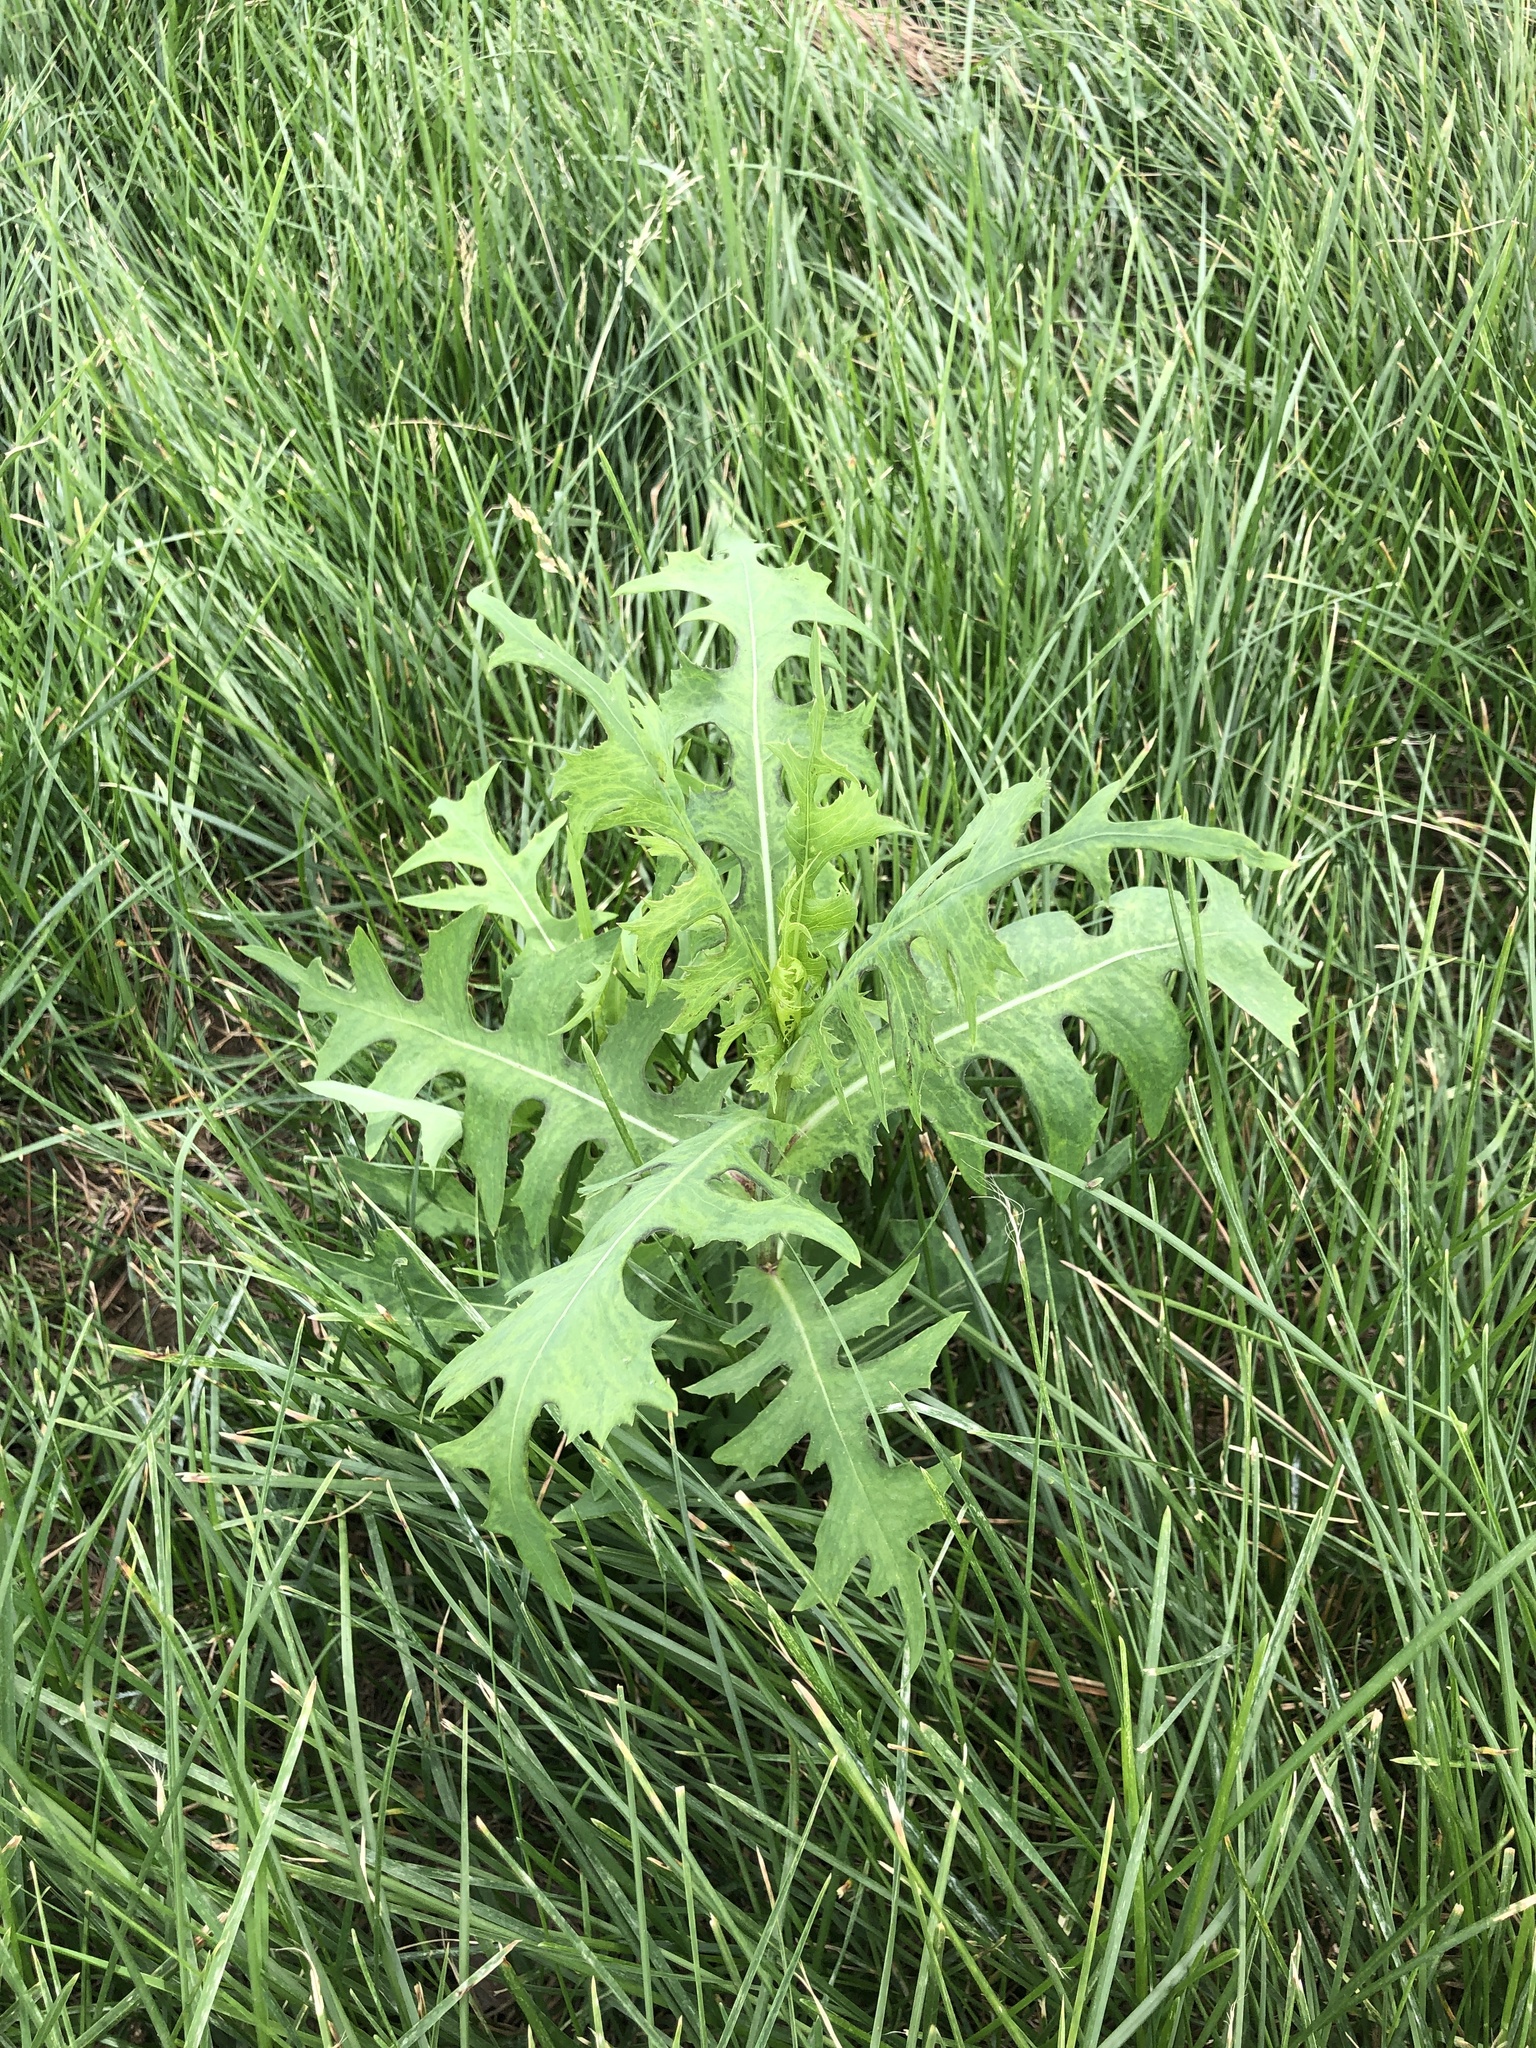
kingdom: Plantae
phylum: Tracheophyta
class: Magnoliopsida
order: Asterales
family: Asteraceae
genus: Lactuca
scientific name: Lactuca indica
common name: Wild lettuce
